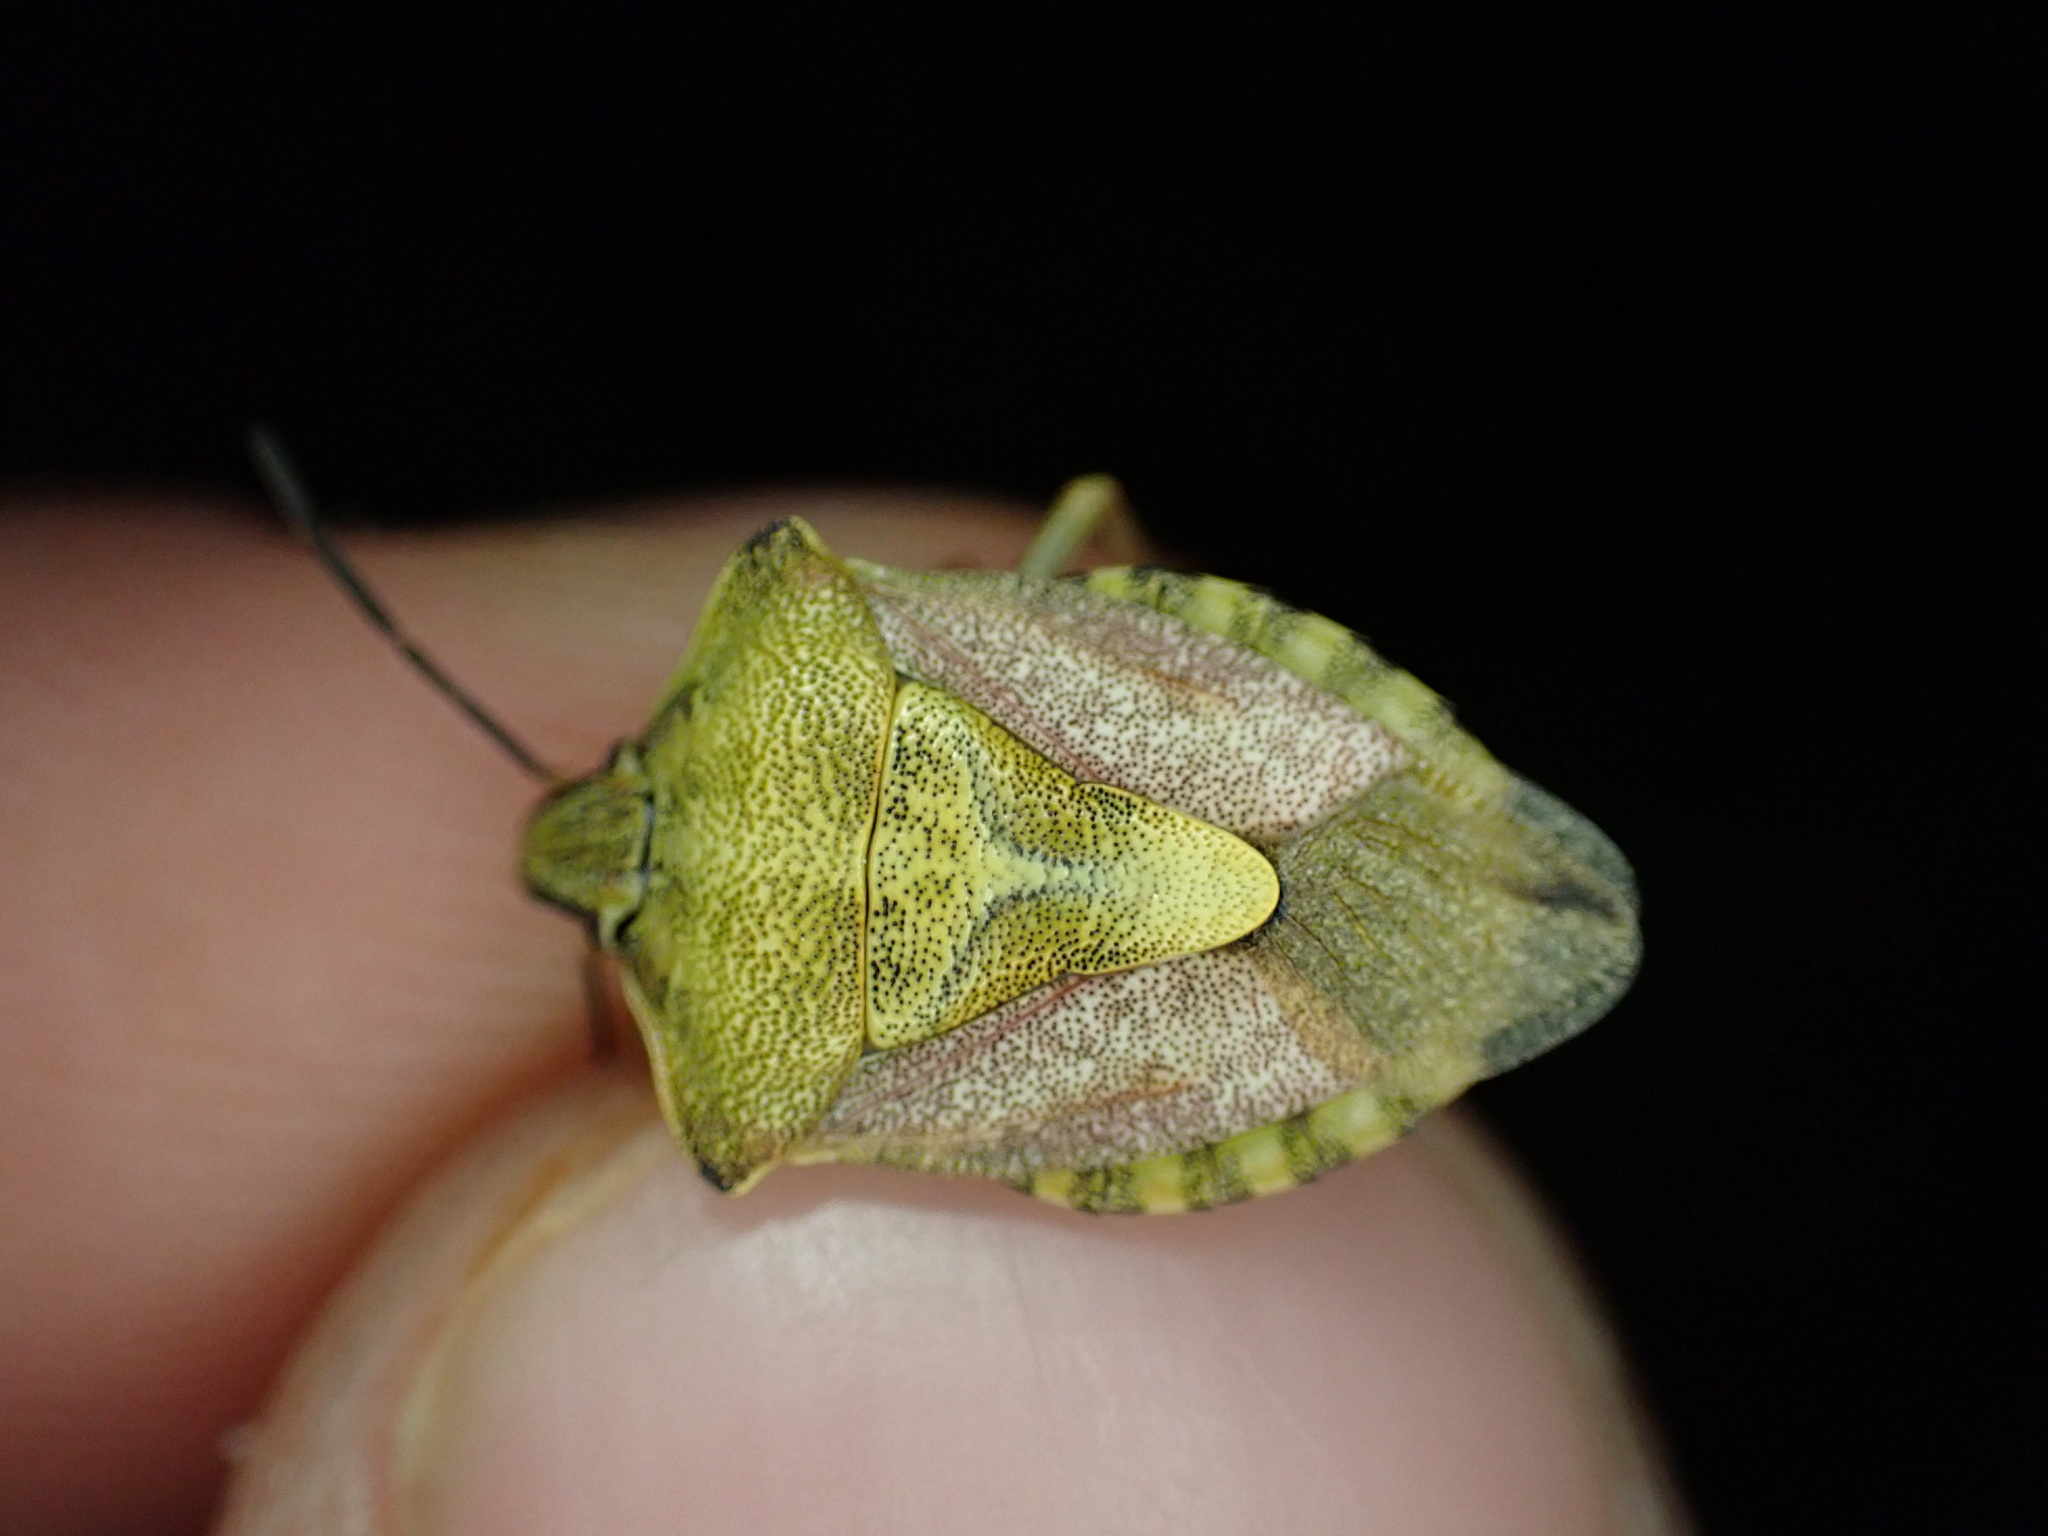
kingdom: Animalia
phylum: Arthropoda
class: Insecta
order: Hemiptera
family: Pentatomidae
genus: Carpocoris
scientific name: Carpocoris purpureipennis
